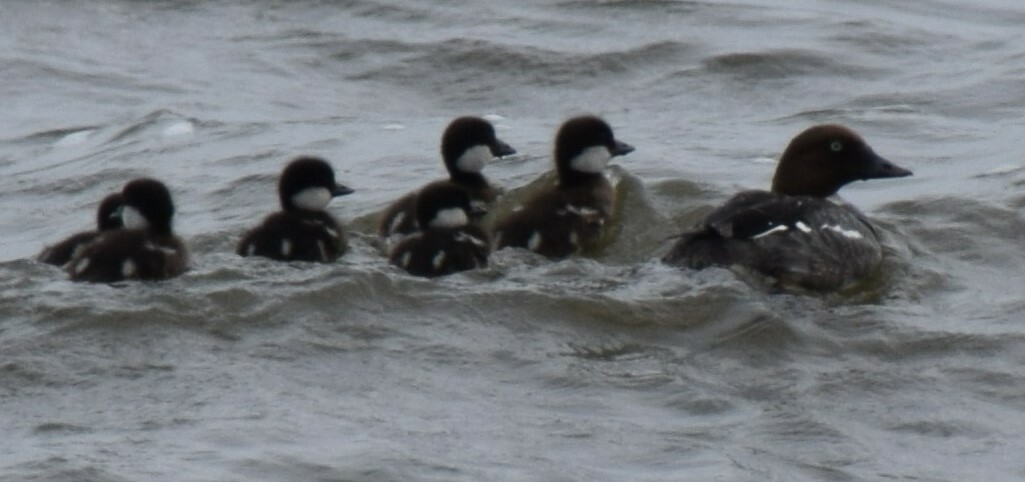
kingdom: Animalia
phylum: Chordata
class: Aves
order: Anseriformes
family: Anatidae
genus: Bucephala
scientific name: Bucephala clangula
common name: Common goldeneye
